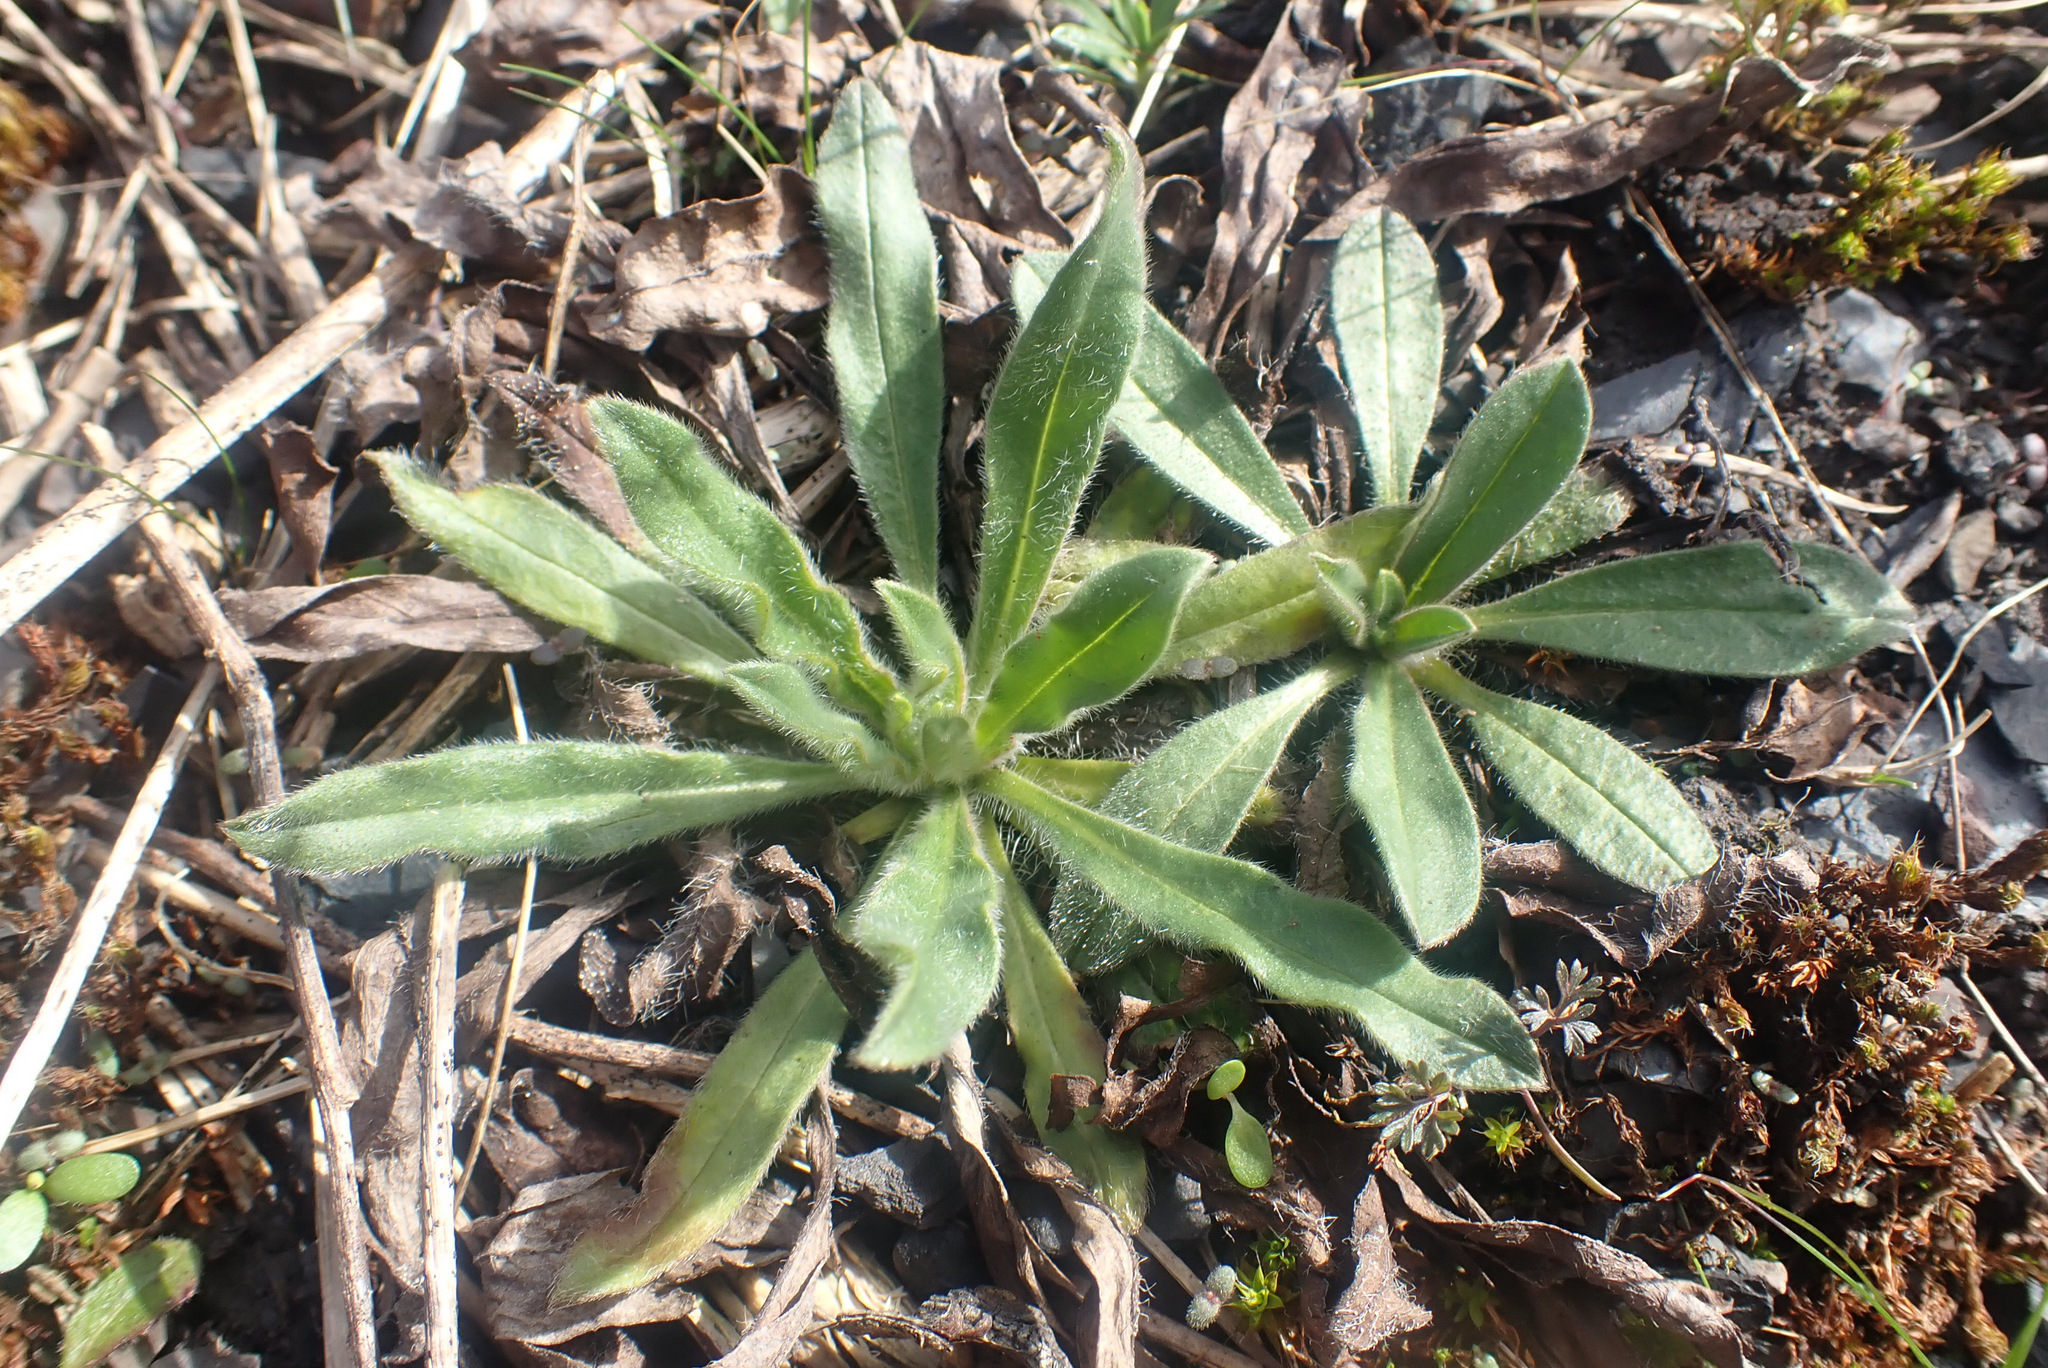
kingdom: Plantae
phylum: Tracheophyta
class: Magnoliopsida
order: Boraginales
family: Boraginaceae
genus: Echium
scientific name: Echium vulgare
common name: Common viper's bugloss
